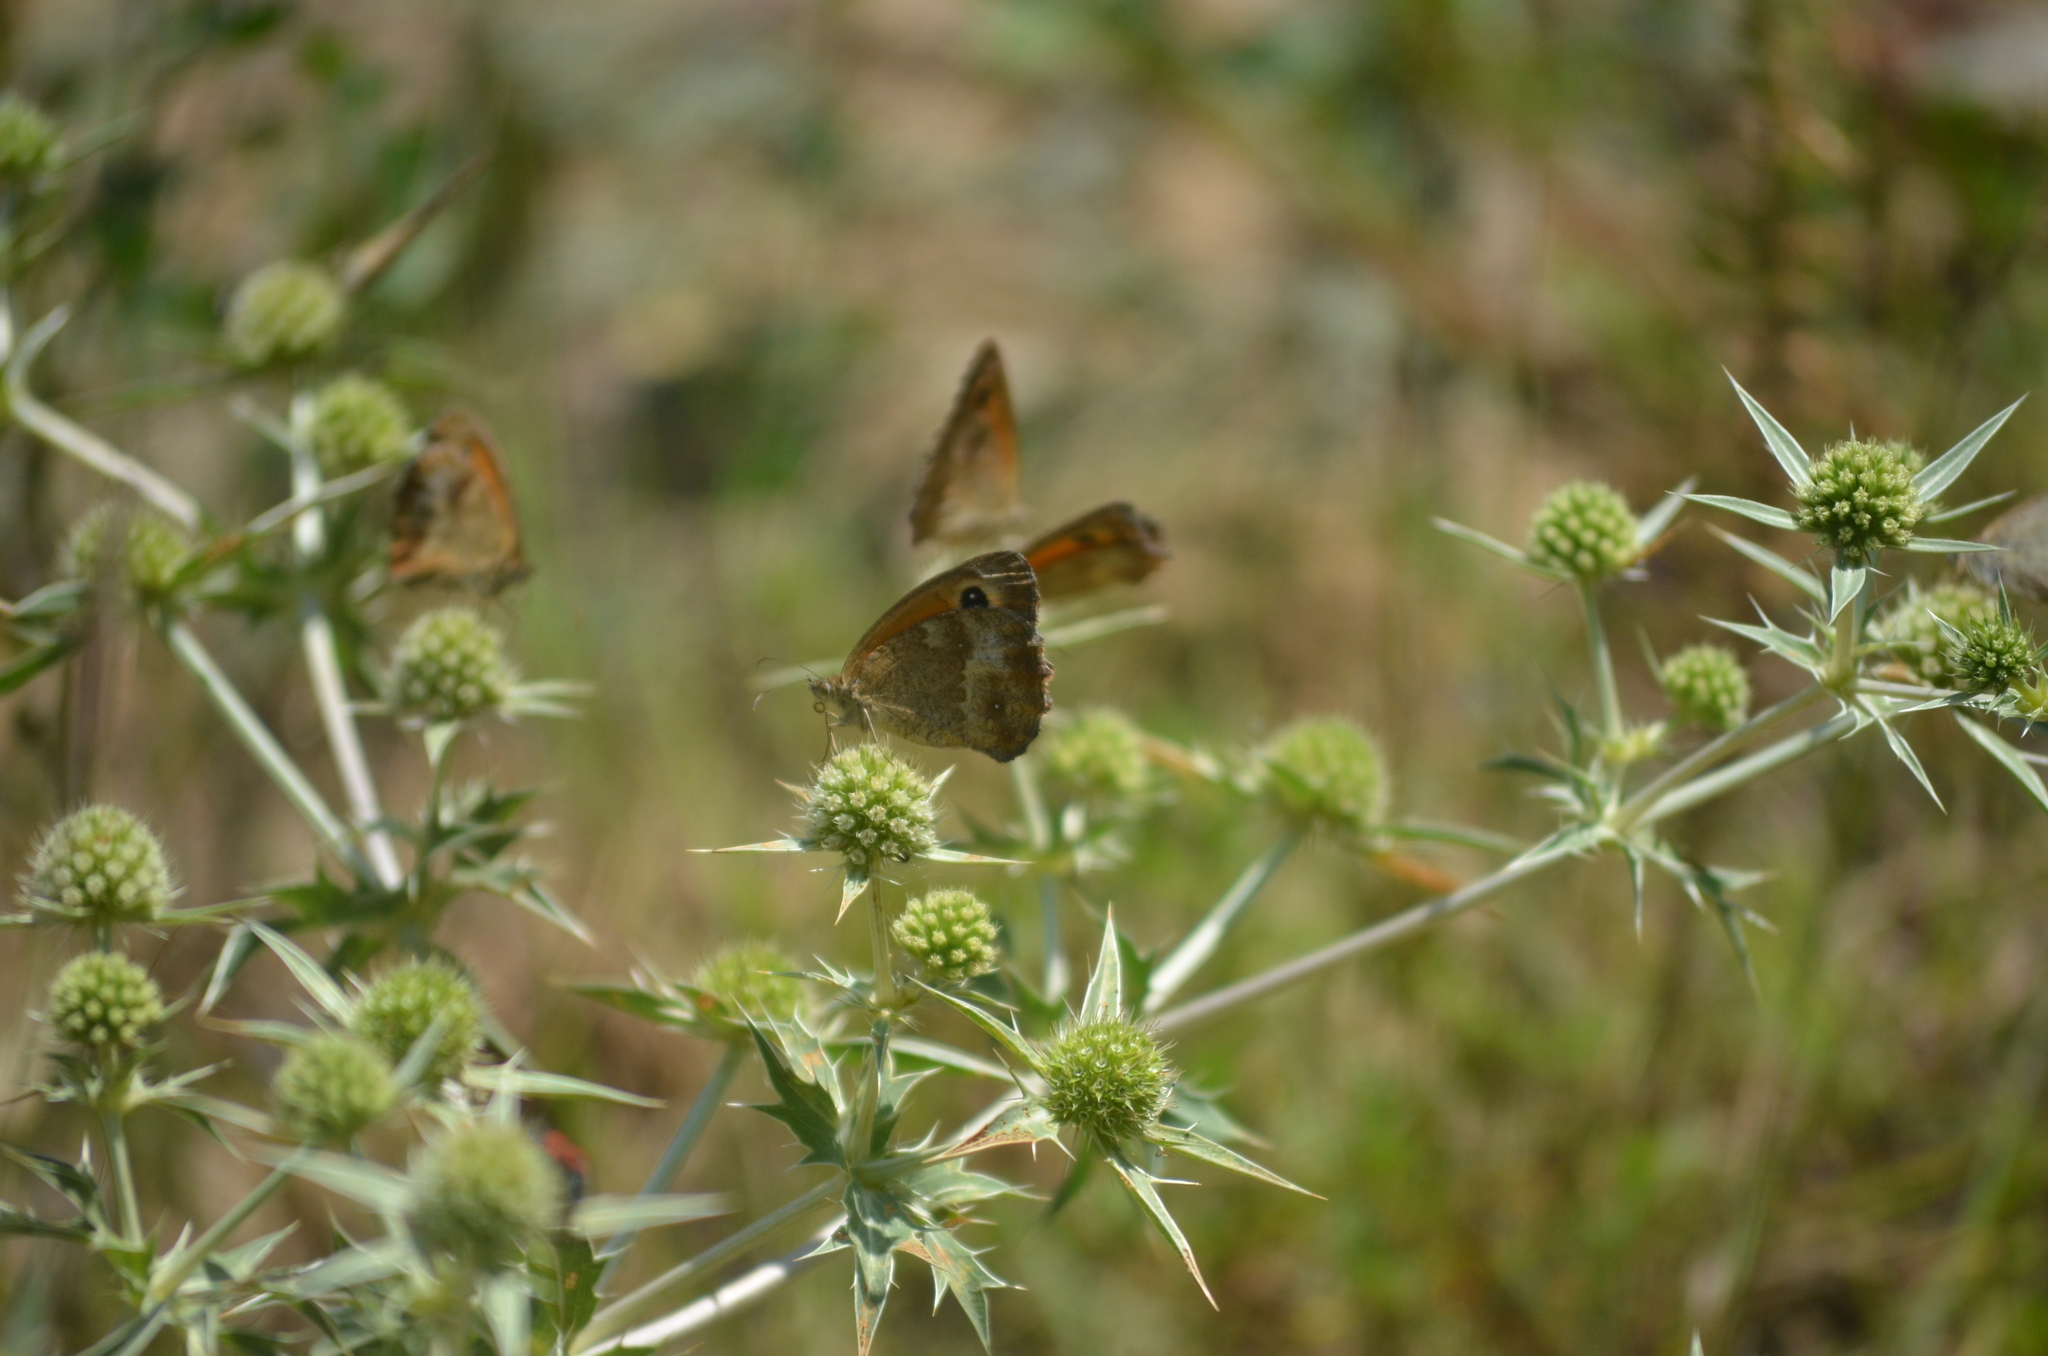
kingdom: Animalia
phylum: Arthropoda
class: Insecta
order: Lepidoptera
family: Nymphalidae
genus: Pyronia
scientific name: Pyronia tithonus
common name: Gatekeeper
